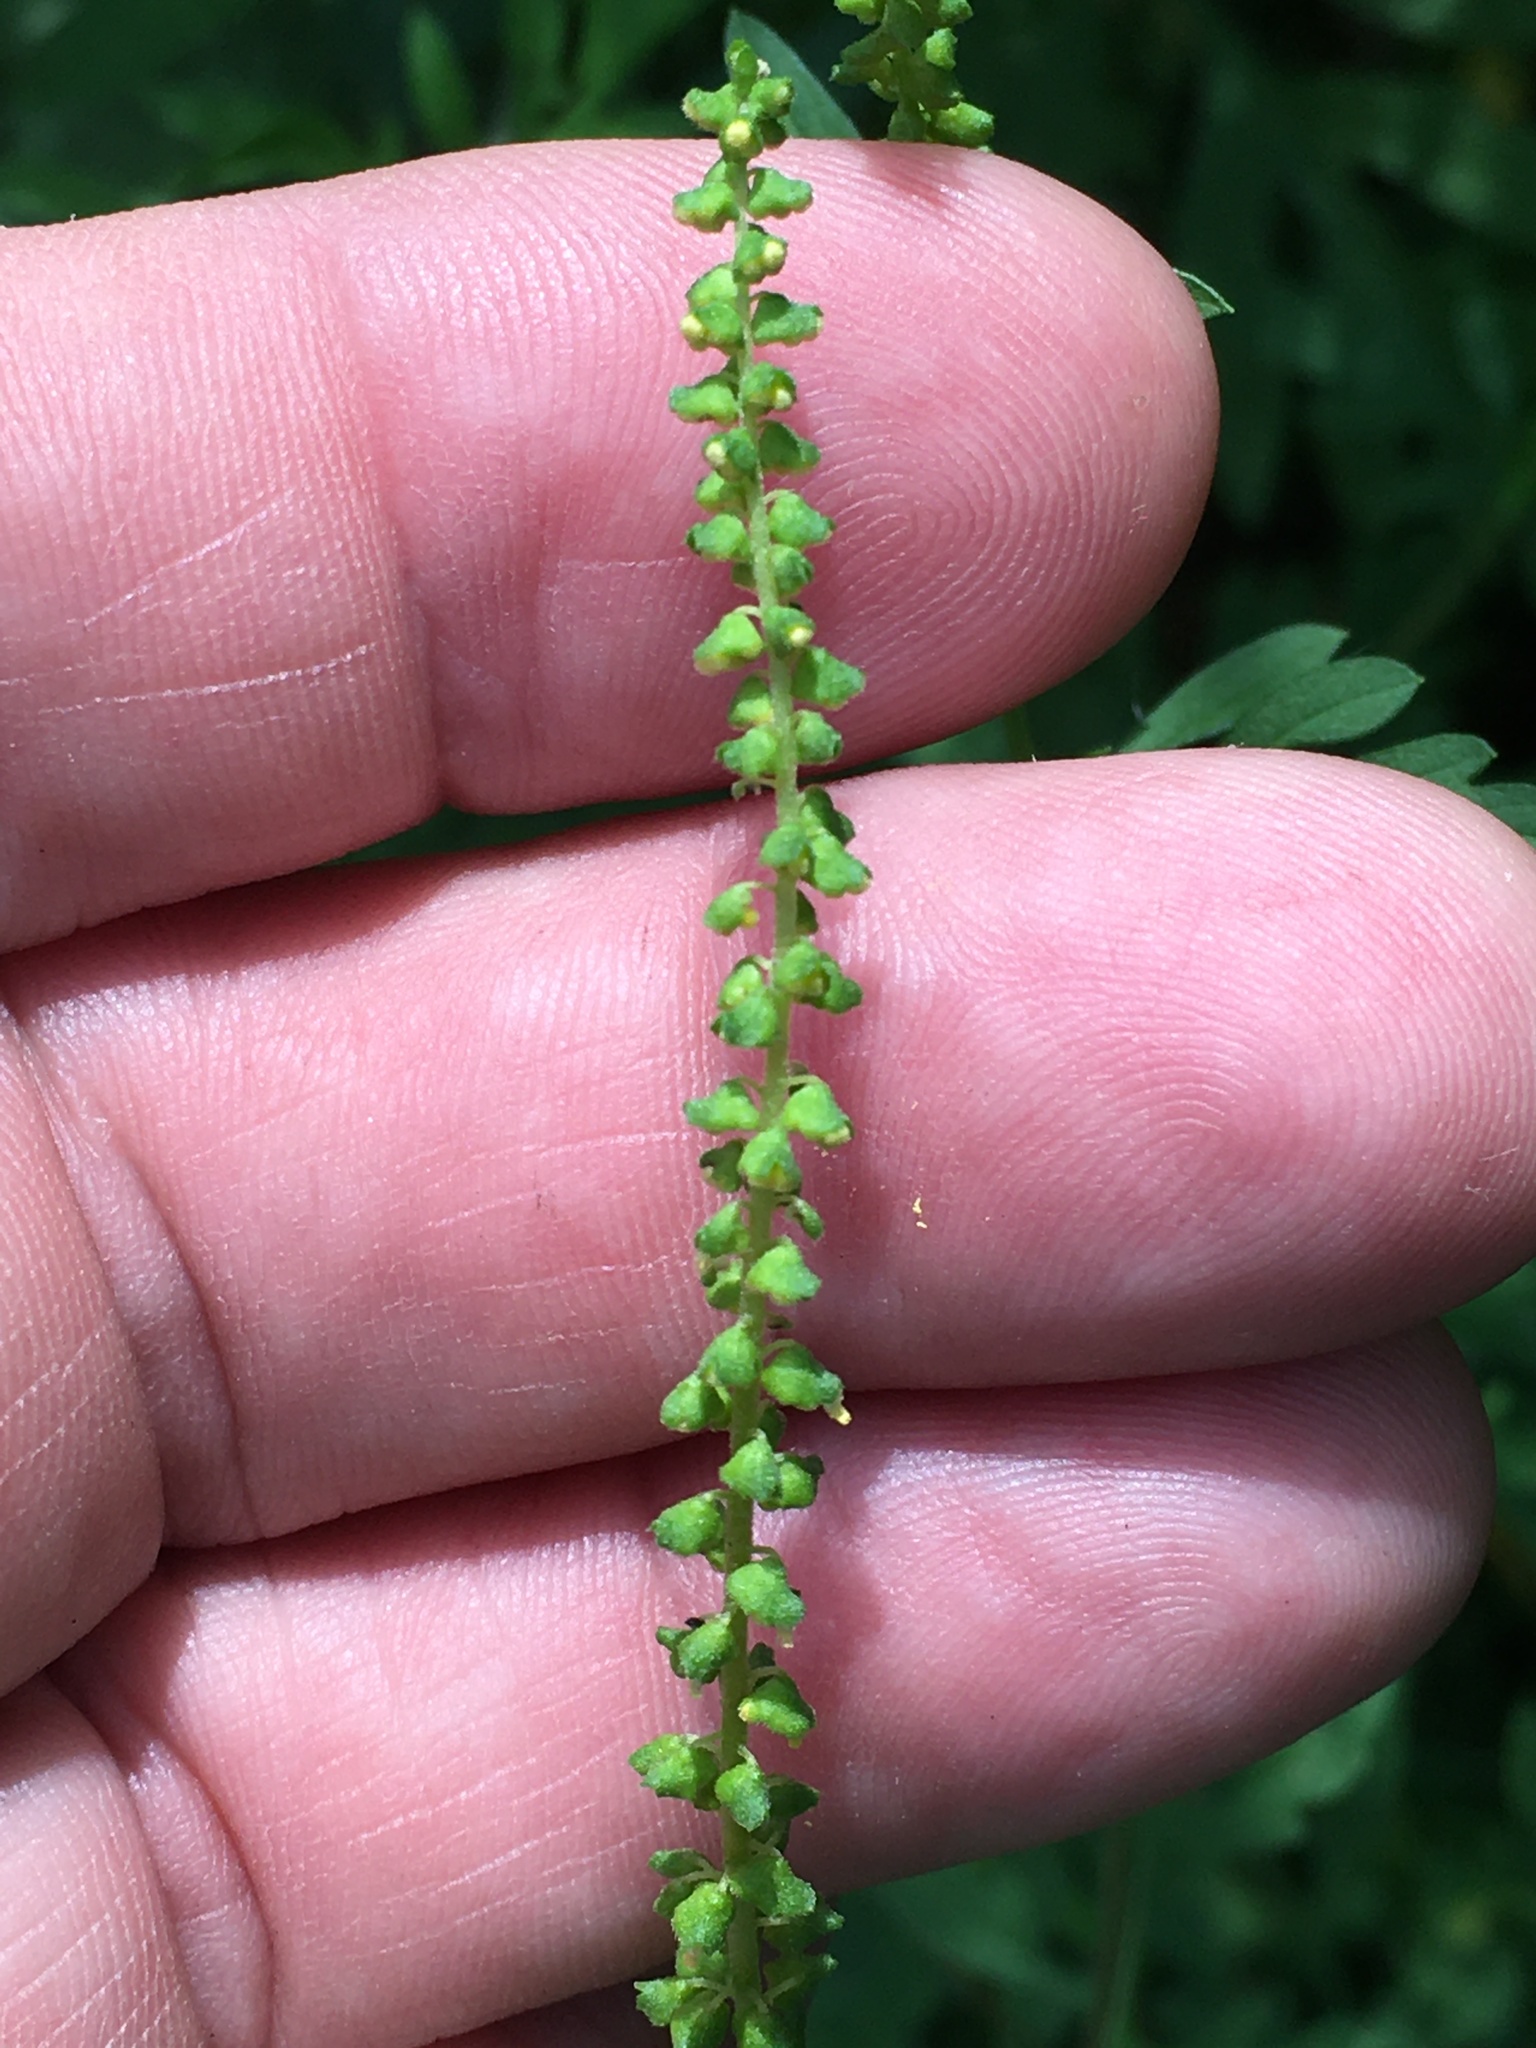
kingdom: Plantae
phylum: Tracheophyta
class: Magnoliopsida
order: Asterales
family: Asteraceae
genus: Ambrosia
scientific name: Ambrosia artemisiifolia
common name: Annual ragweed
